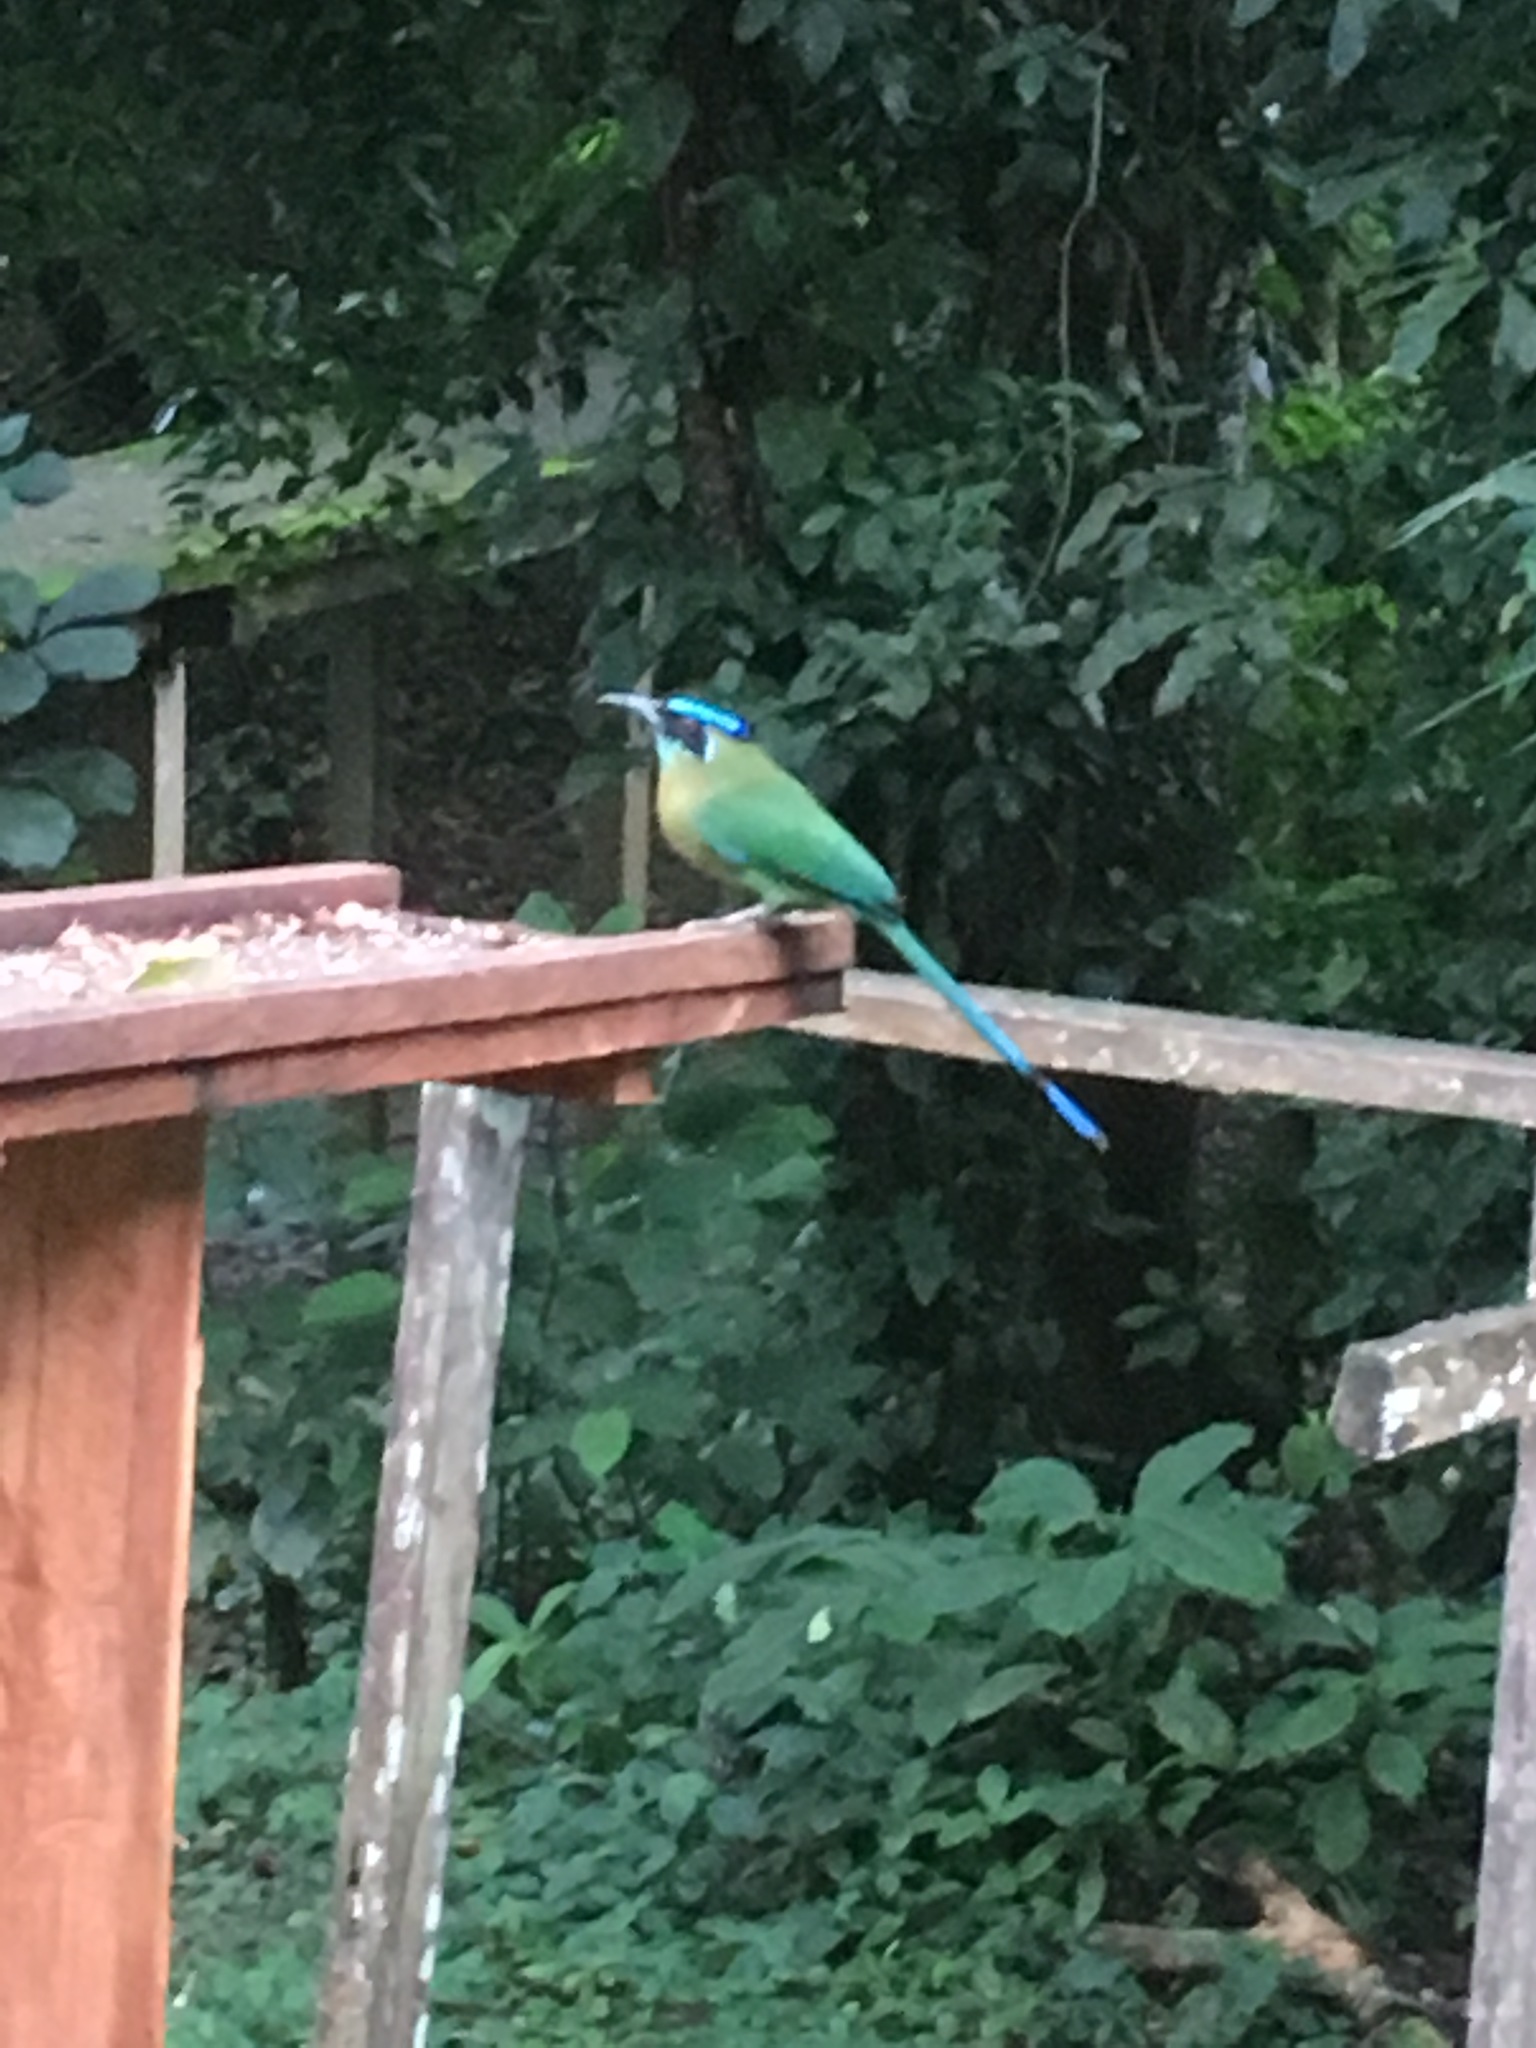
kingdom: Animalia
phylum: Chordata
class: Aves
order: Coraciiformes
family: Momotidae
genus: Momotus
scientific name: Momotus lessonii
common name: Lesson's motmot
